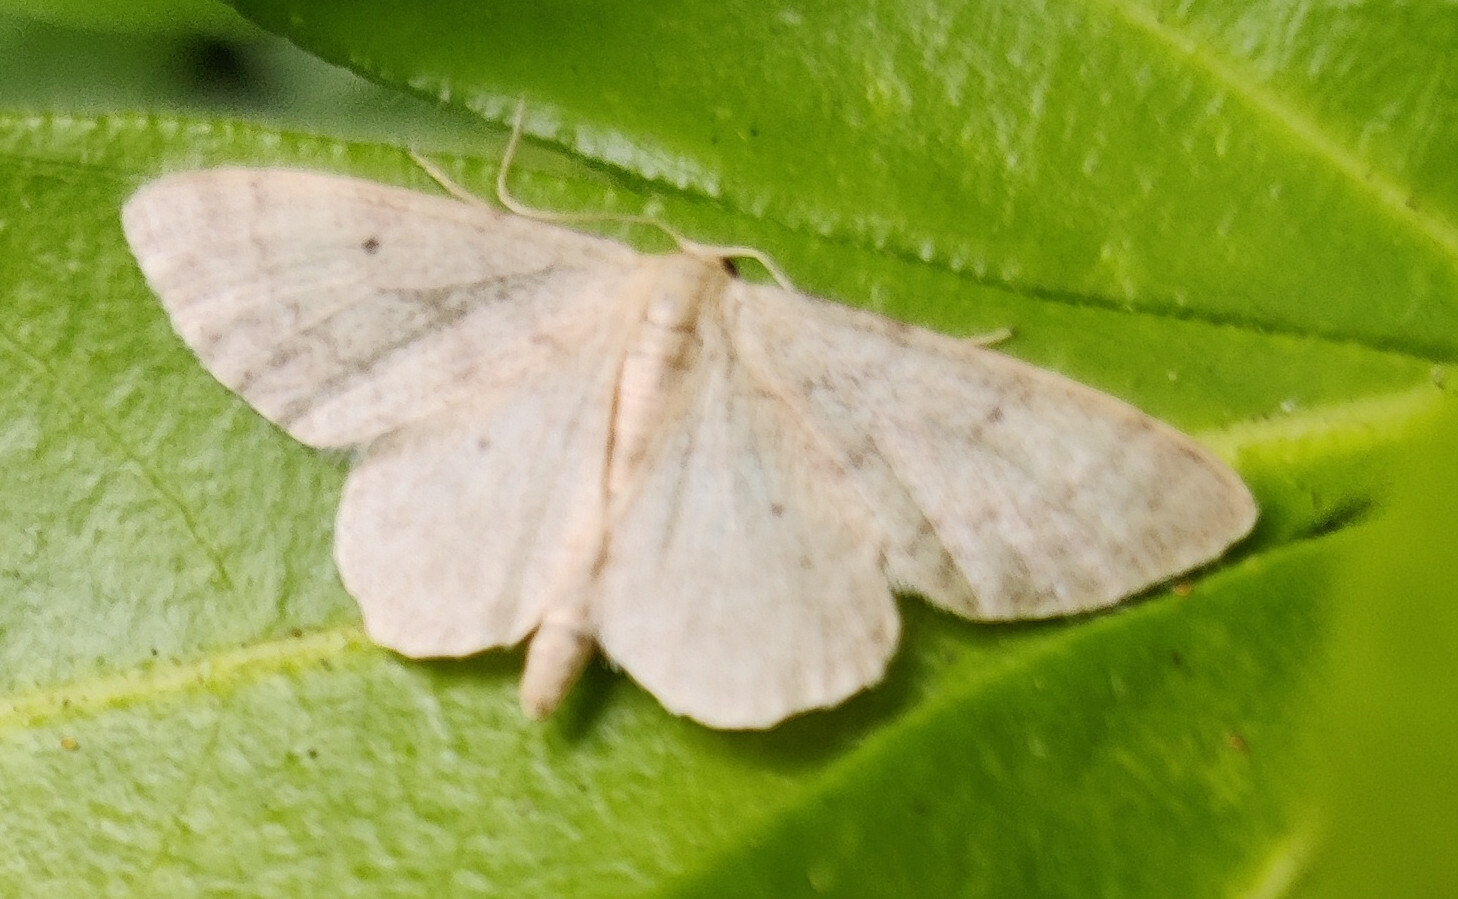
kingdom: Animalia
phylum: Arthropoda
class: Insecta
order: Lepidoptera
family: Geometridae
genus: Idaea
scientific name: Idaea biselata
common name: Small fan-footed wave
